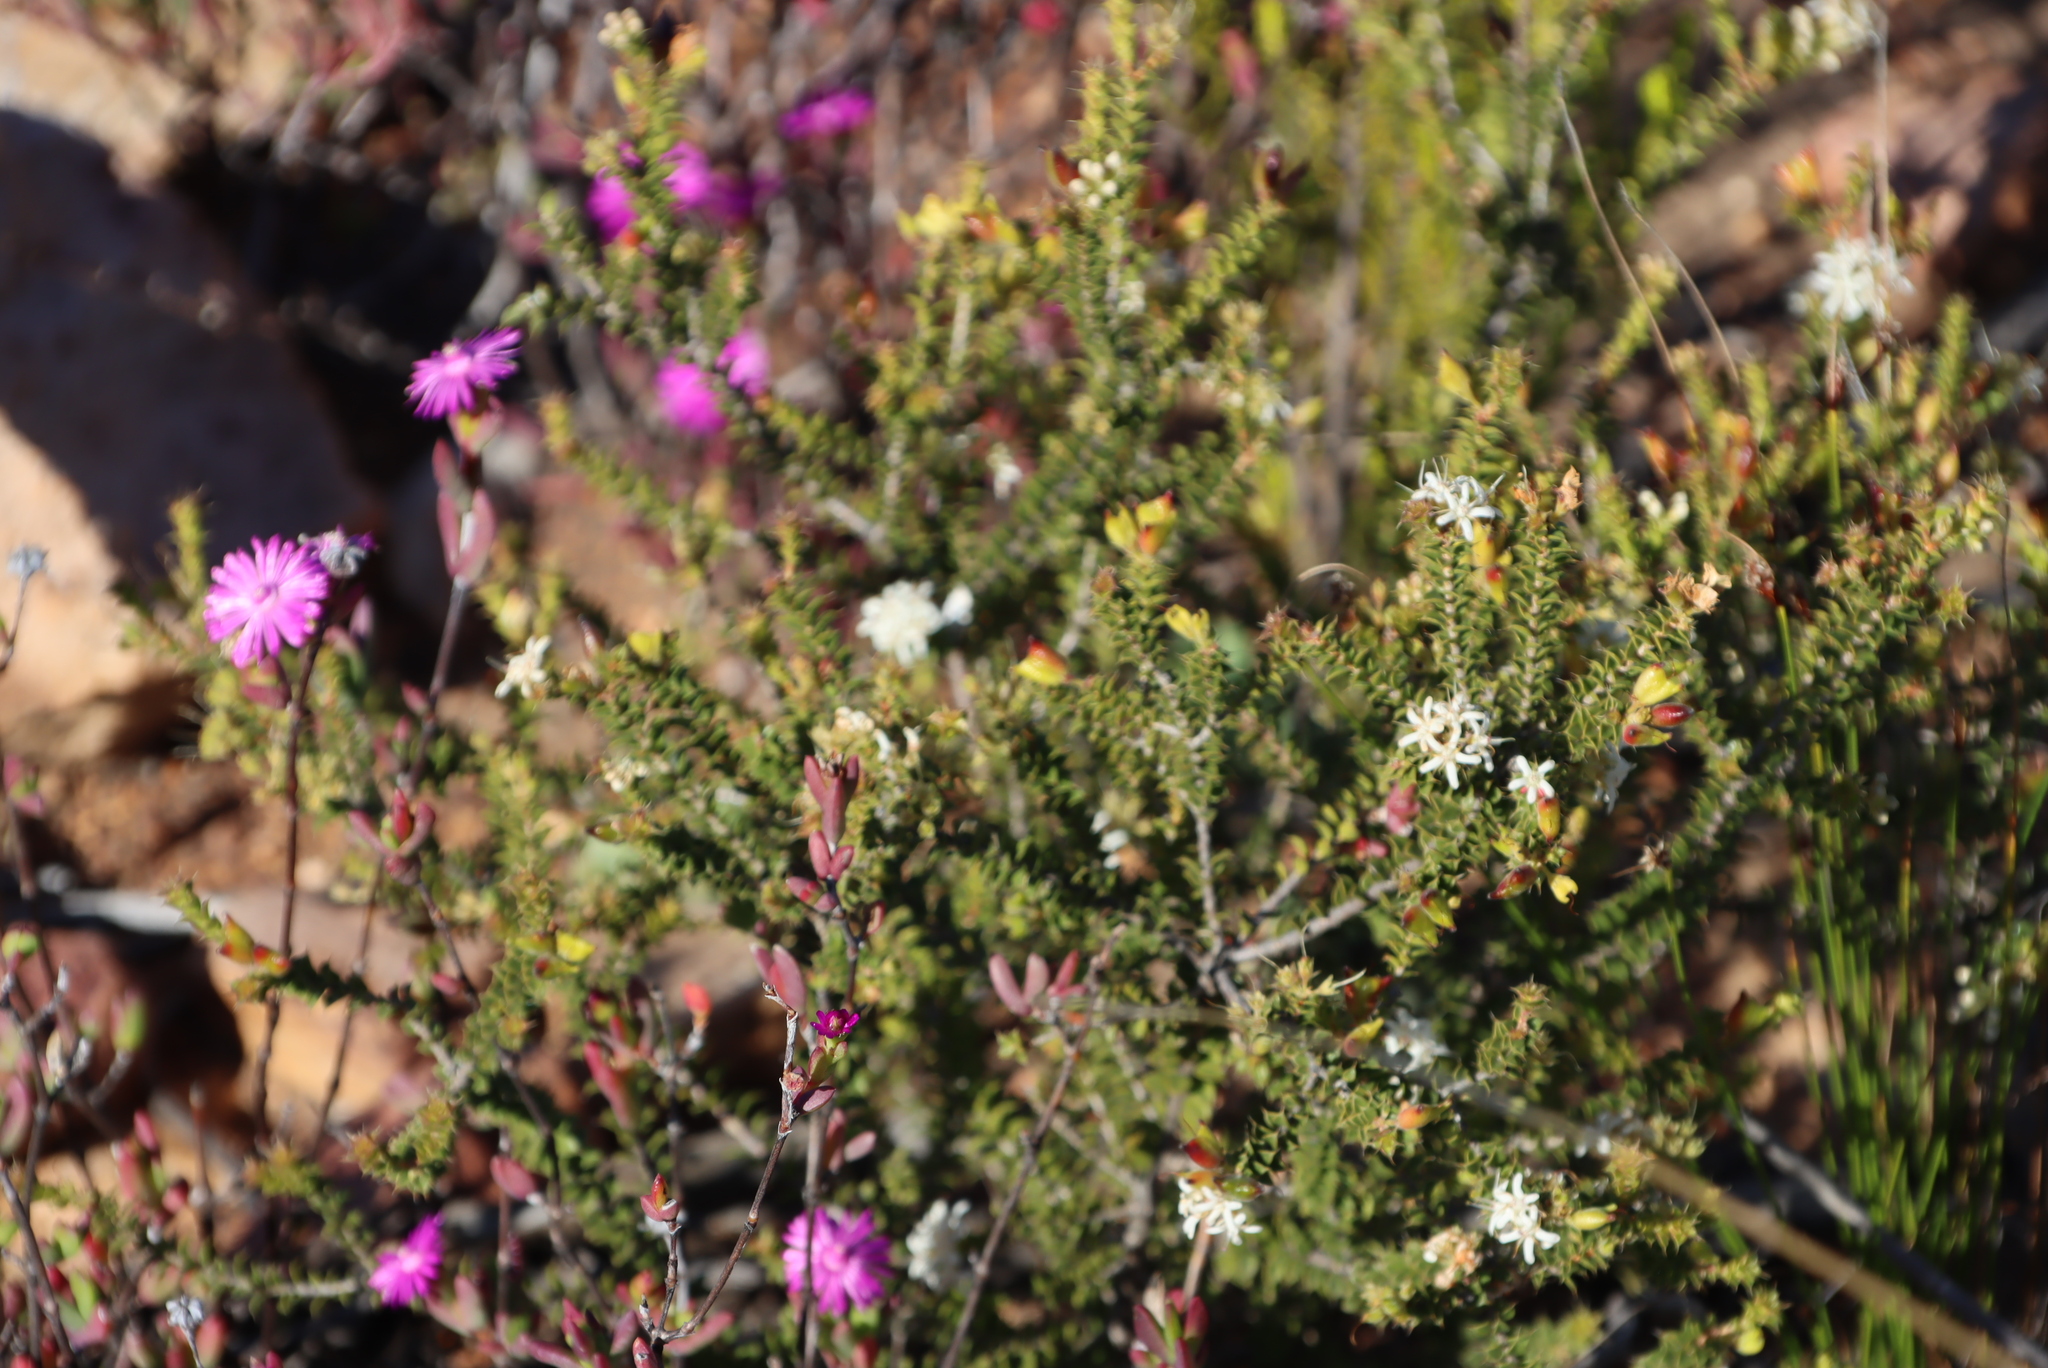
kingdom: Plantae
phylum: Tracheophyta
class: Magnoliopsida
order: Sapindales
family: Rutaceae
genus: Agathosma
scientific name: Agathosma recurvifolia
